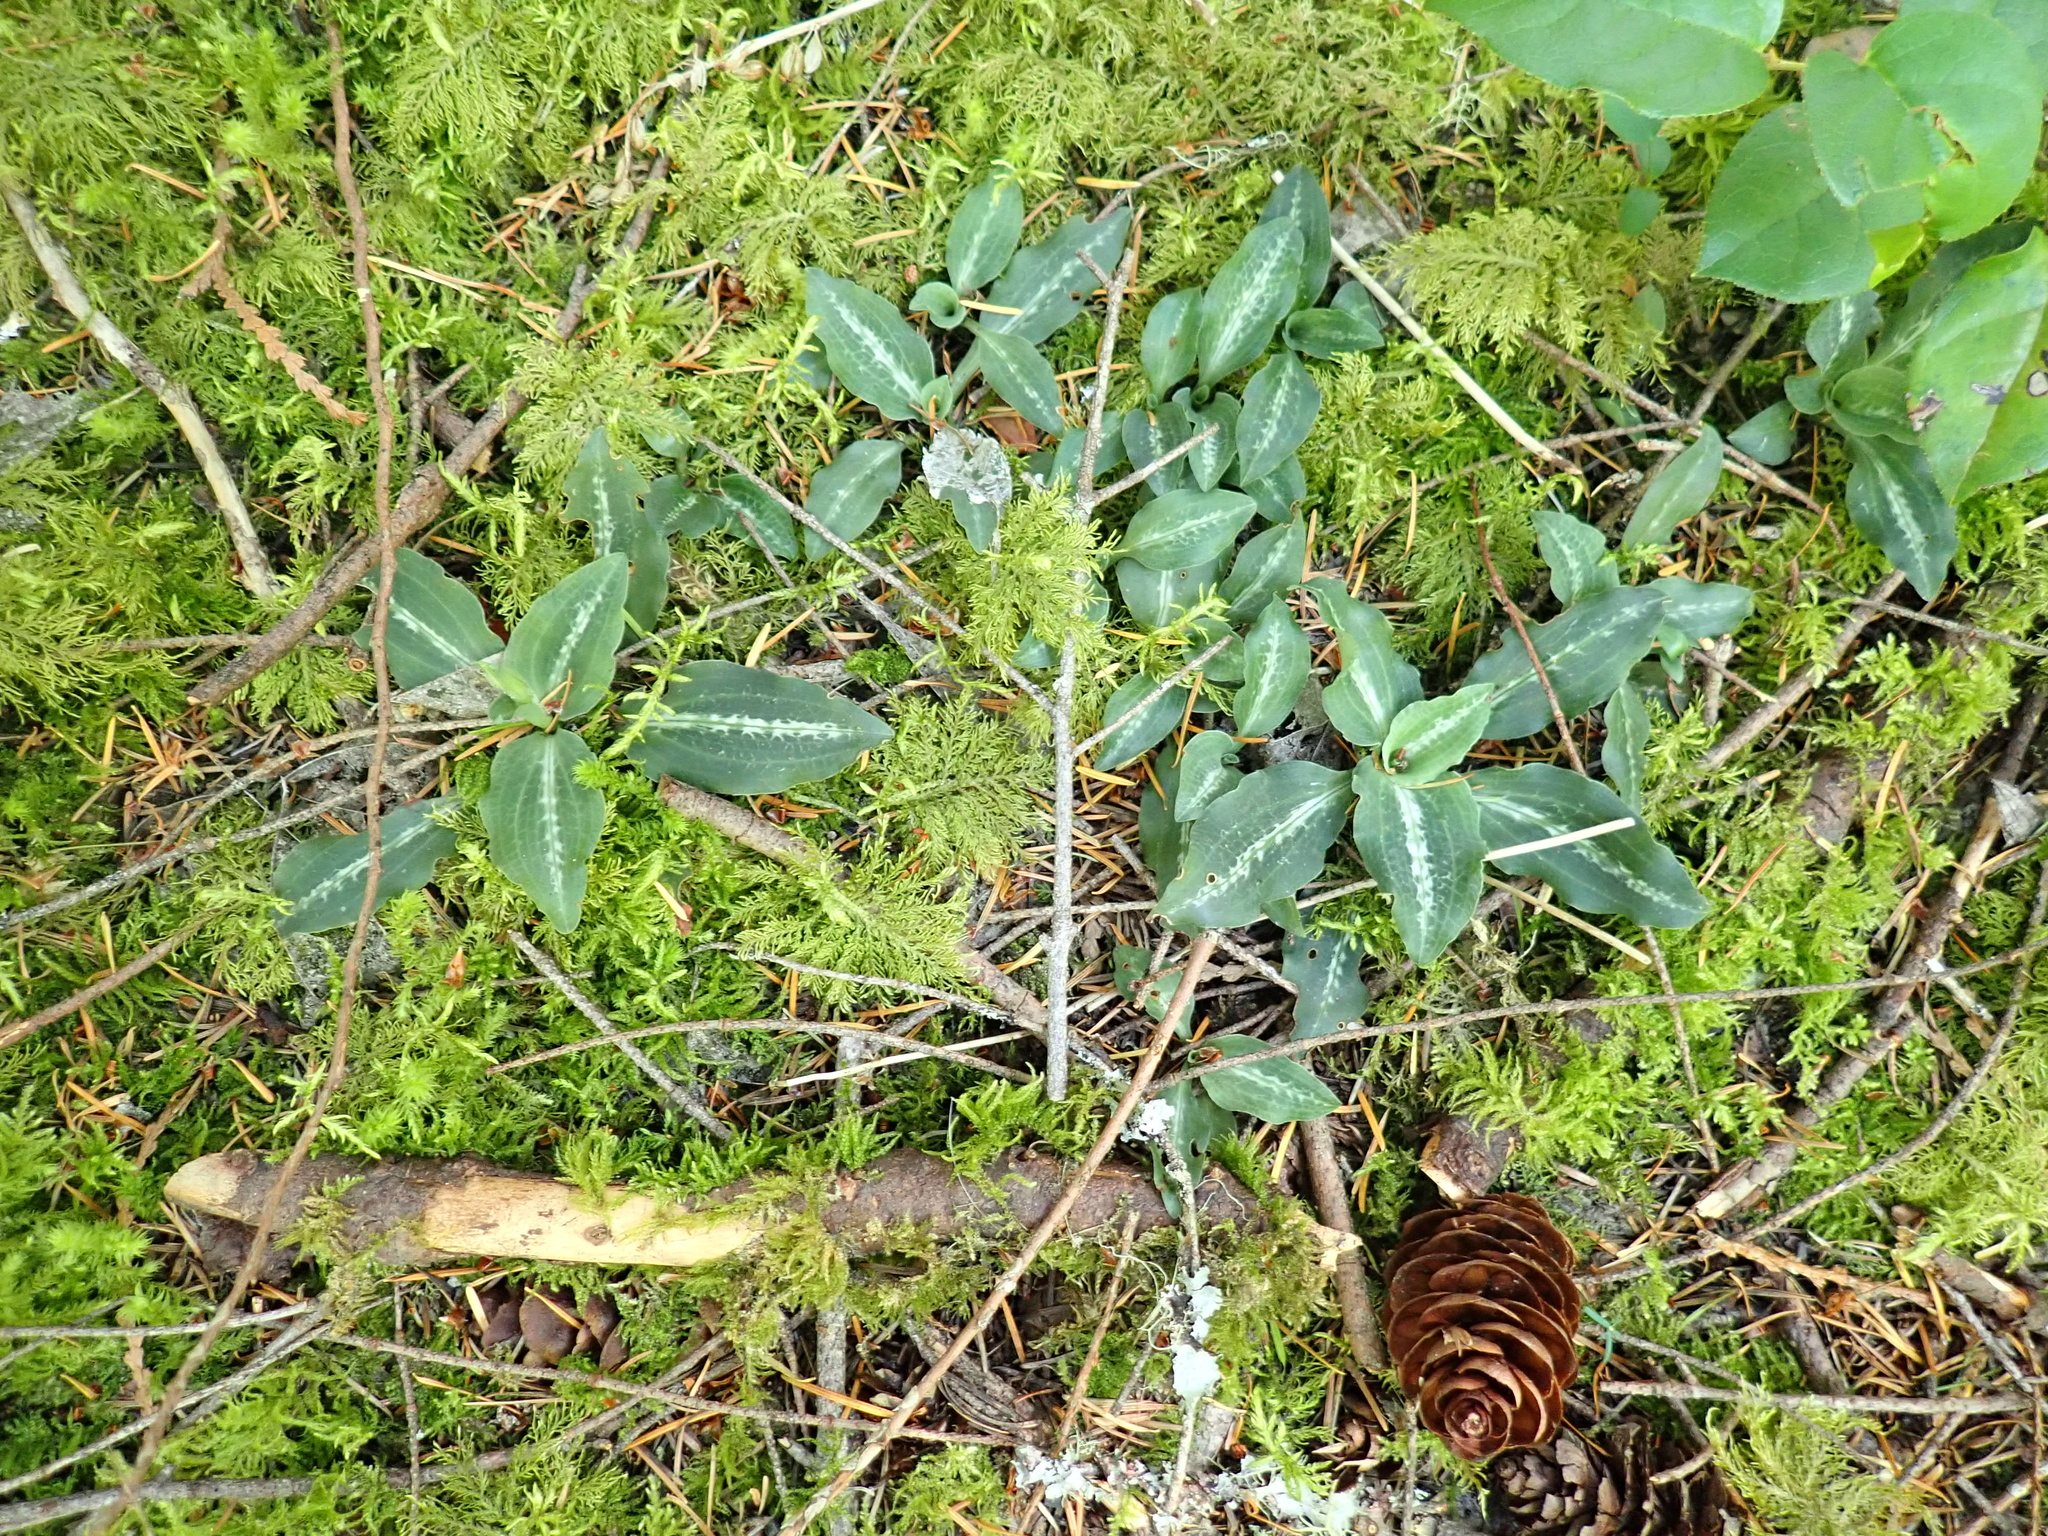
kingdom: Plantae
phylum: Tracheophyta
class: Liliopsida
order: Asparagales
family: Orchidaceae
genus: Goodyera
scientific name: Goodyera oblongifolia
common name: Giant rattlesnake-plantain
